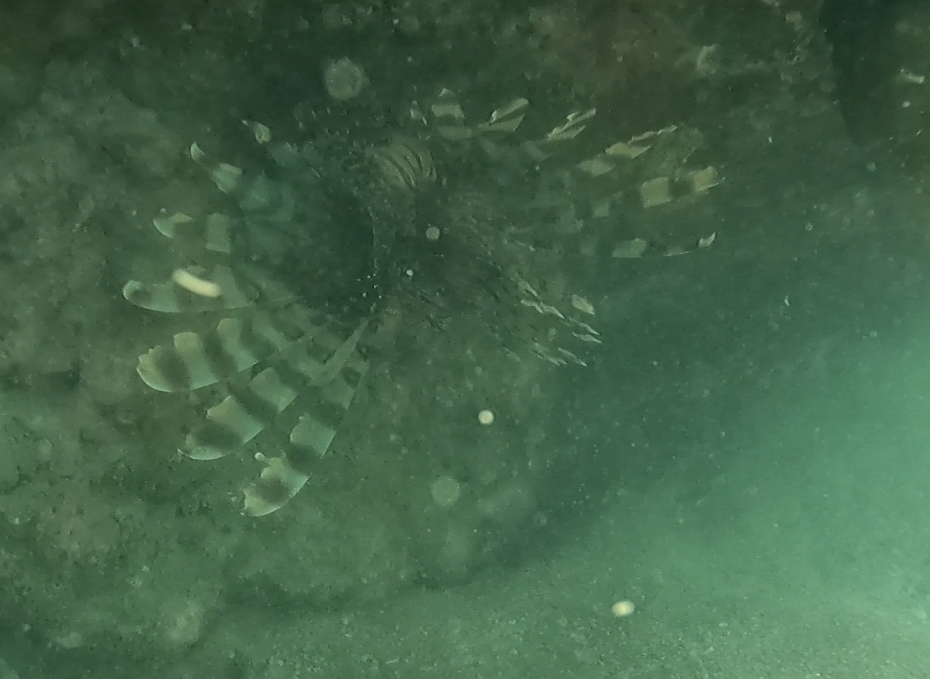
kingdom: Animalia
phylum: Chordata
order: Scorpaeniformes
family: Scorpaenidae
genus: Pterois
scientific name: Pterois volitans
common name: Lionfish
